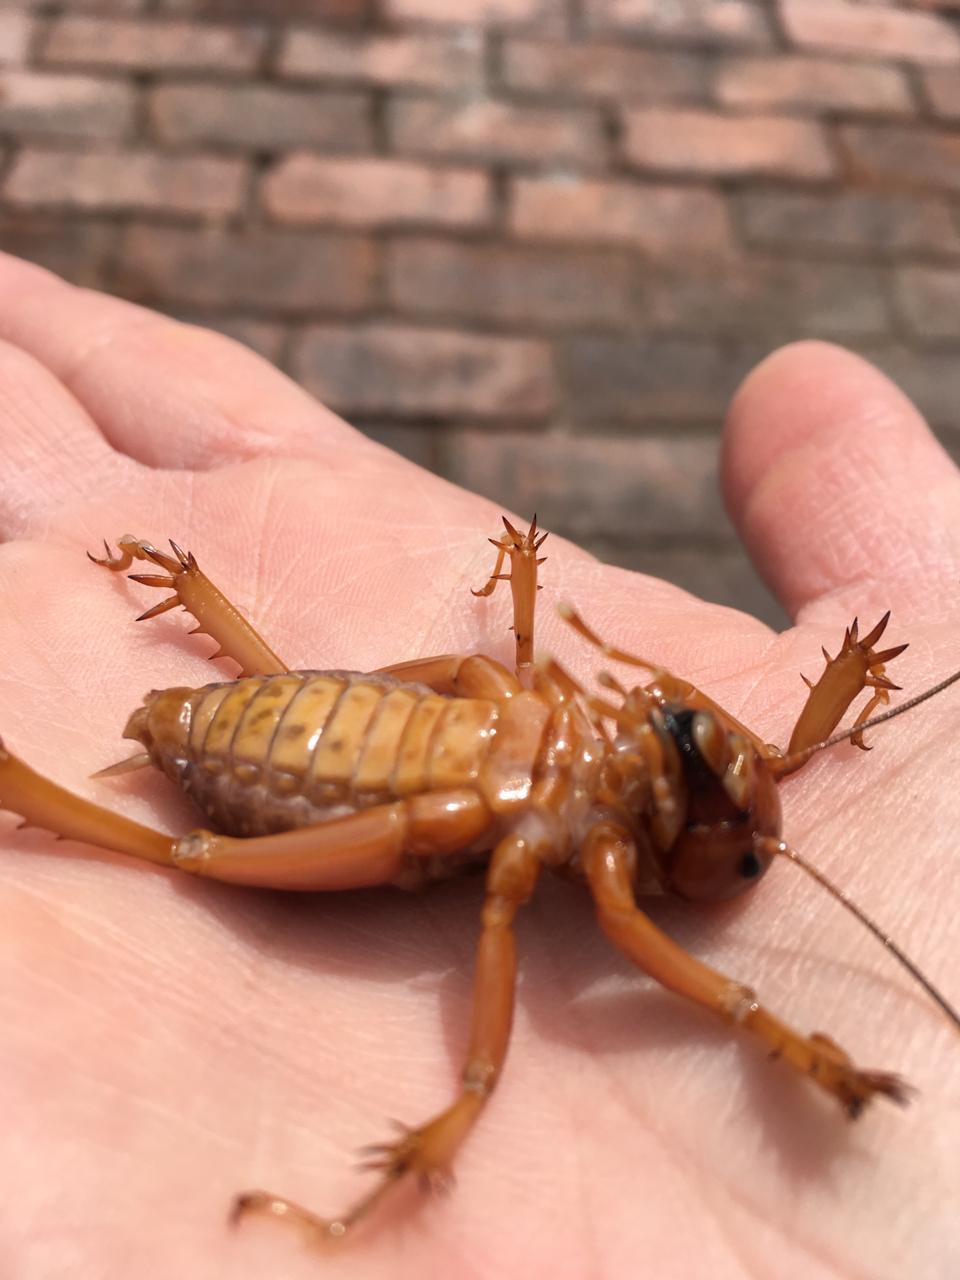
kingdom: Animalia
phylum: Arthropoda
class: Insecta
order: Orthoptera
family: Stenopelmatidae
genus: Stenopelmatus
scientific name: Stenopelmatus talpa
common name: Mole jerusalem cricket
